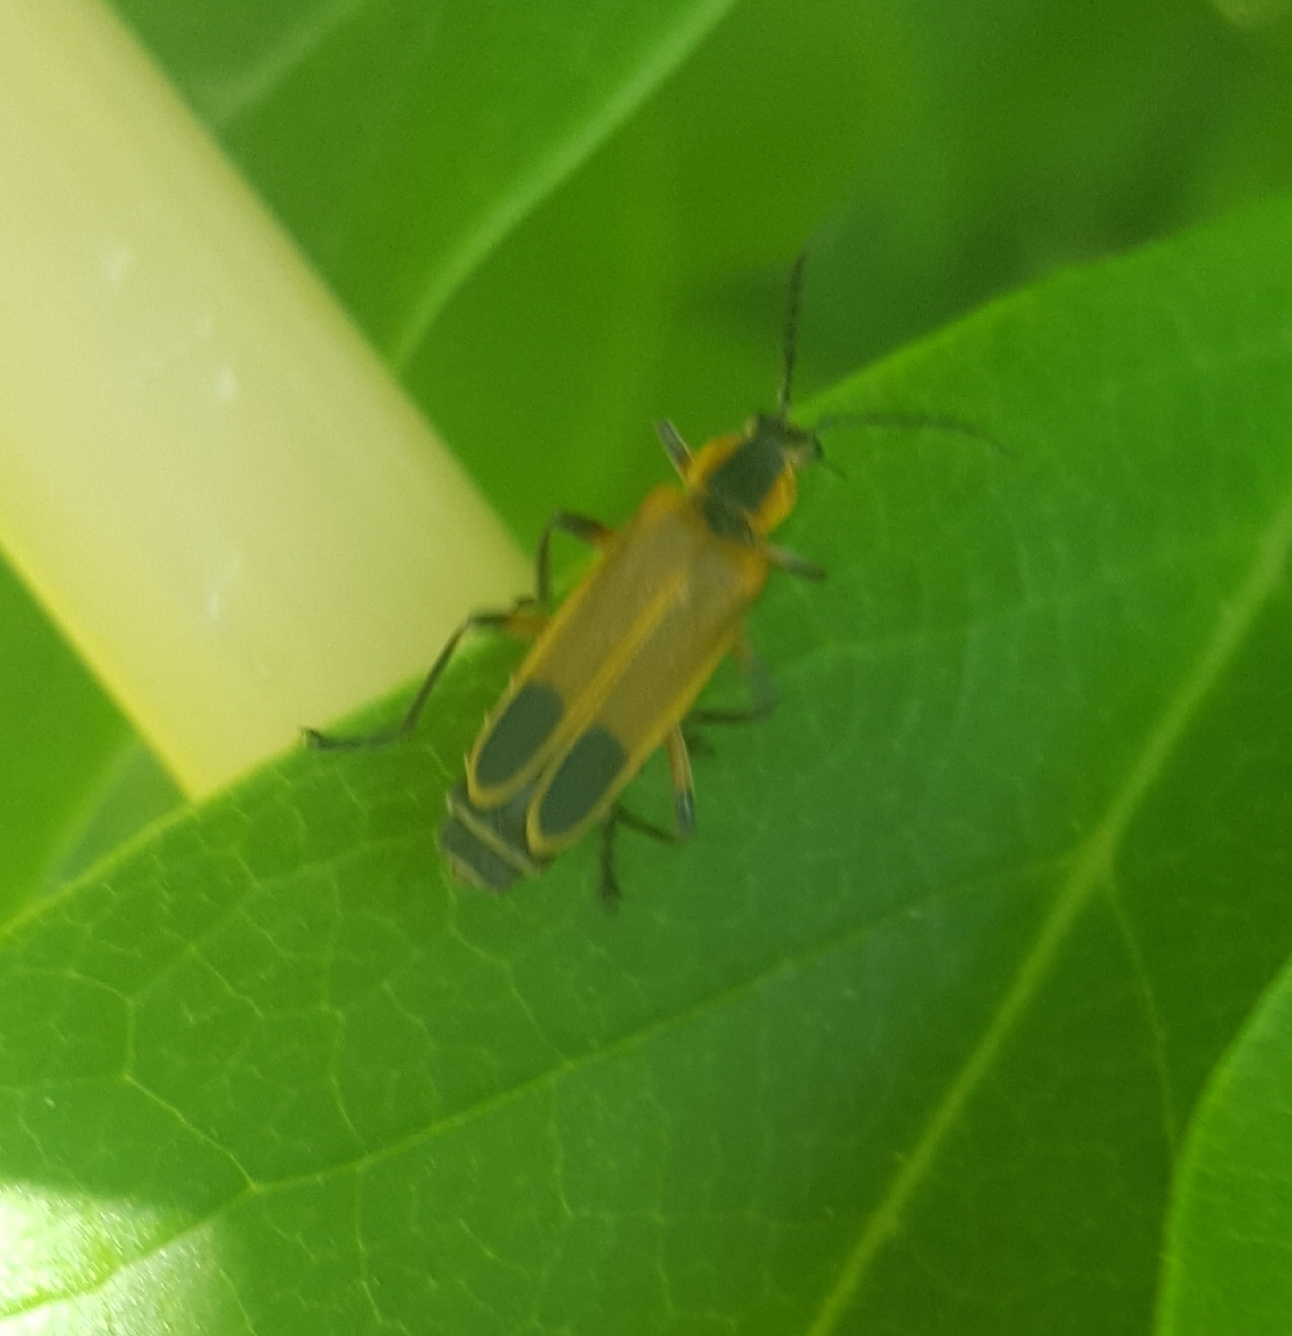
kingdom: Animalia
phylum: Arthropoda
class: Insecta
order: Coleoptera
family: Cantharidae
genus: Chauliognathus
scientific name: Chauliognathus marginatus
